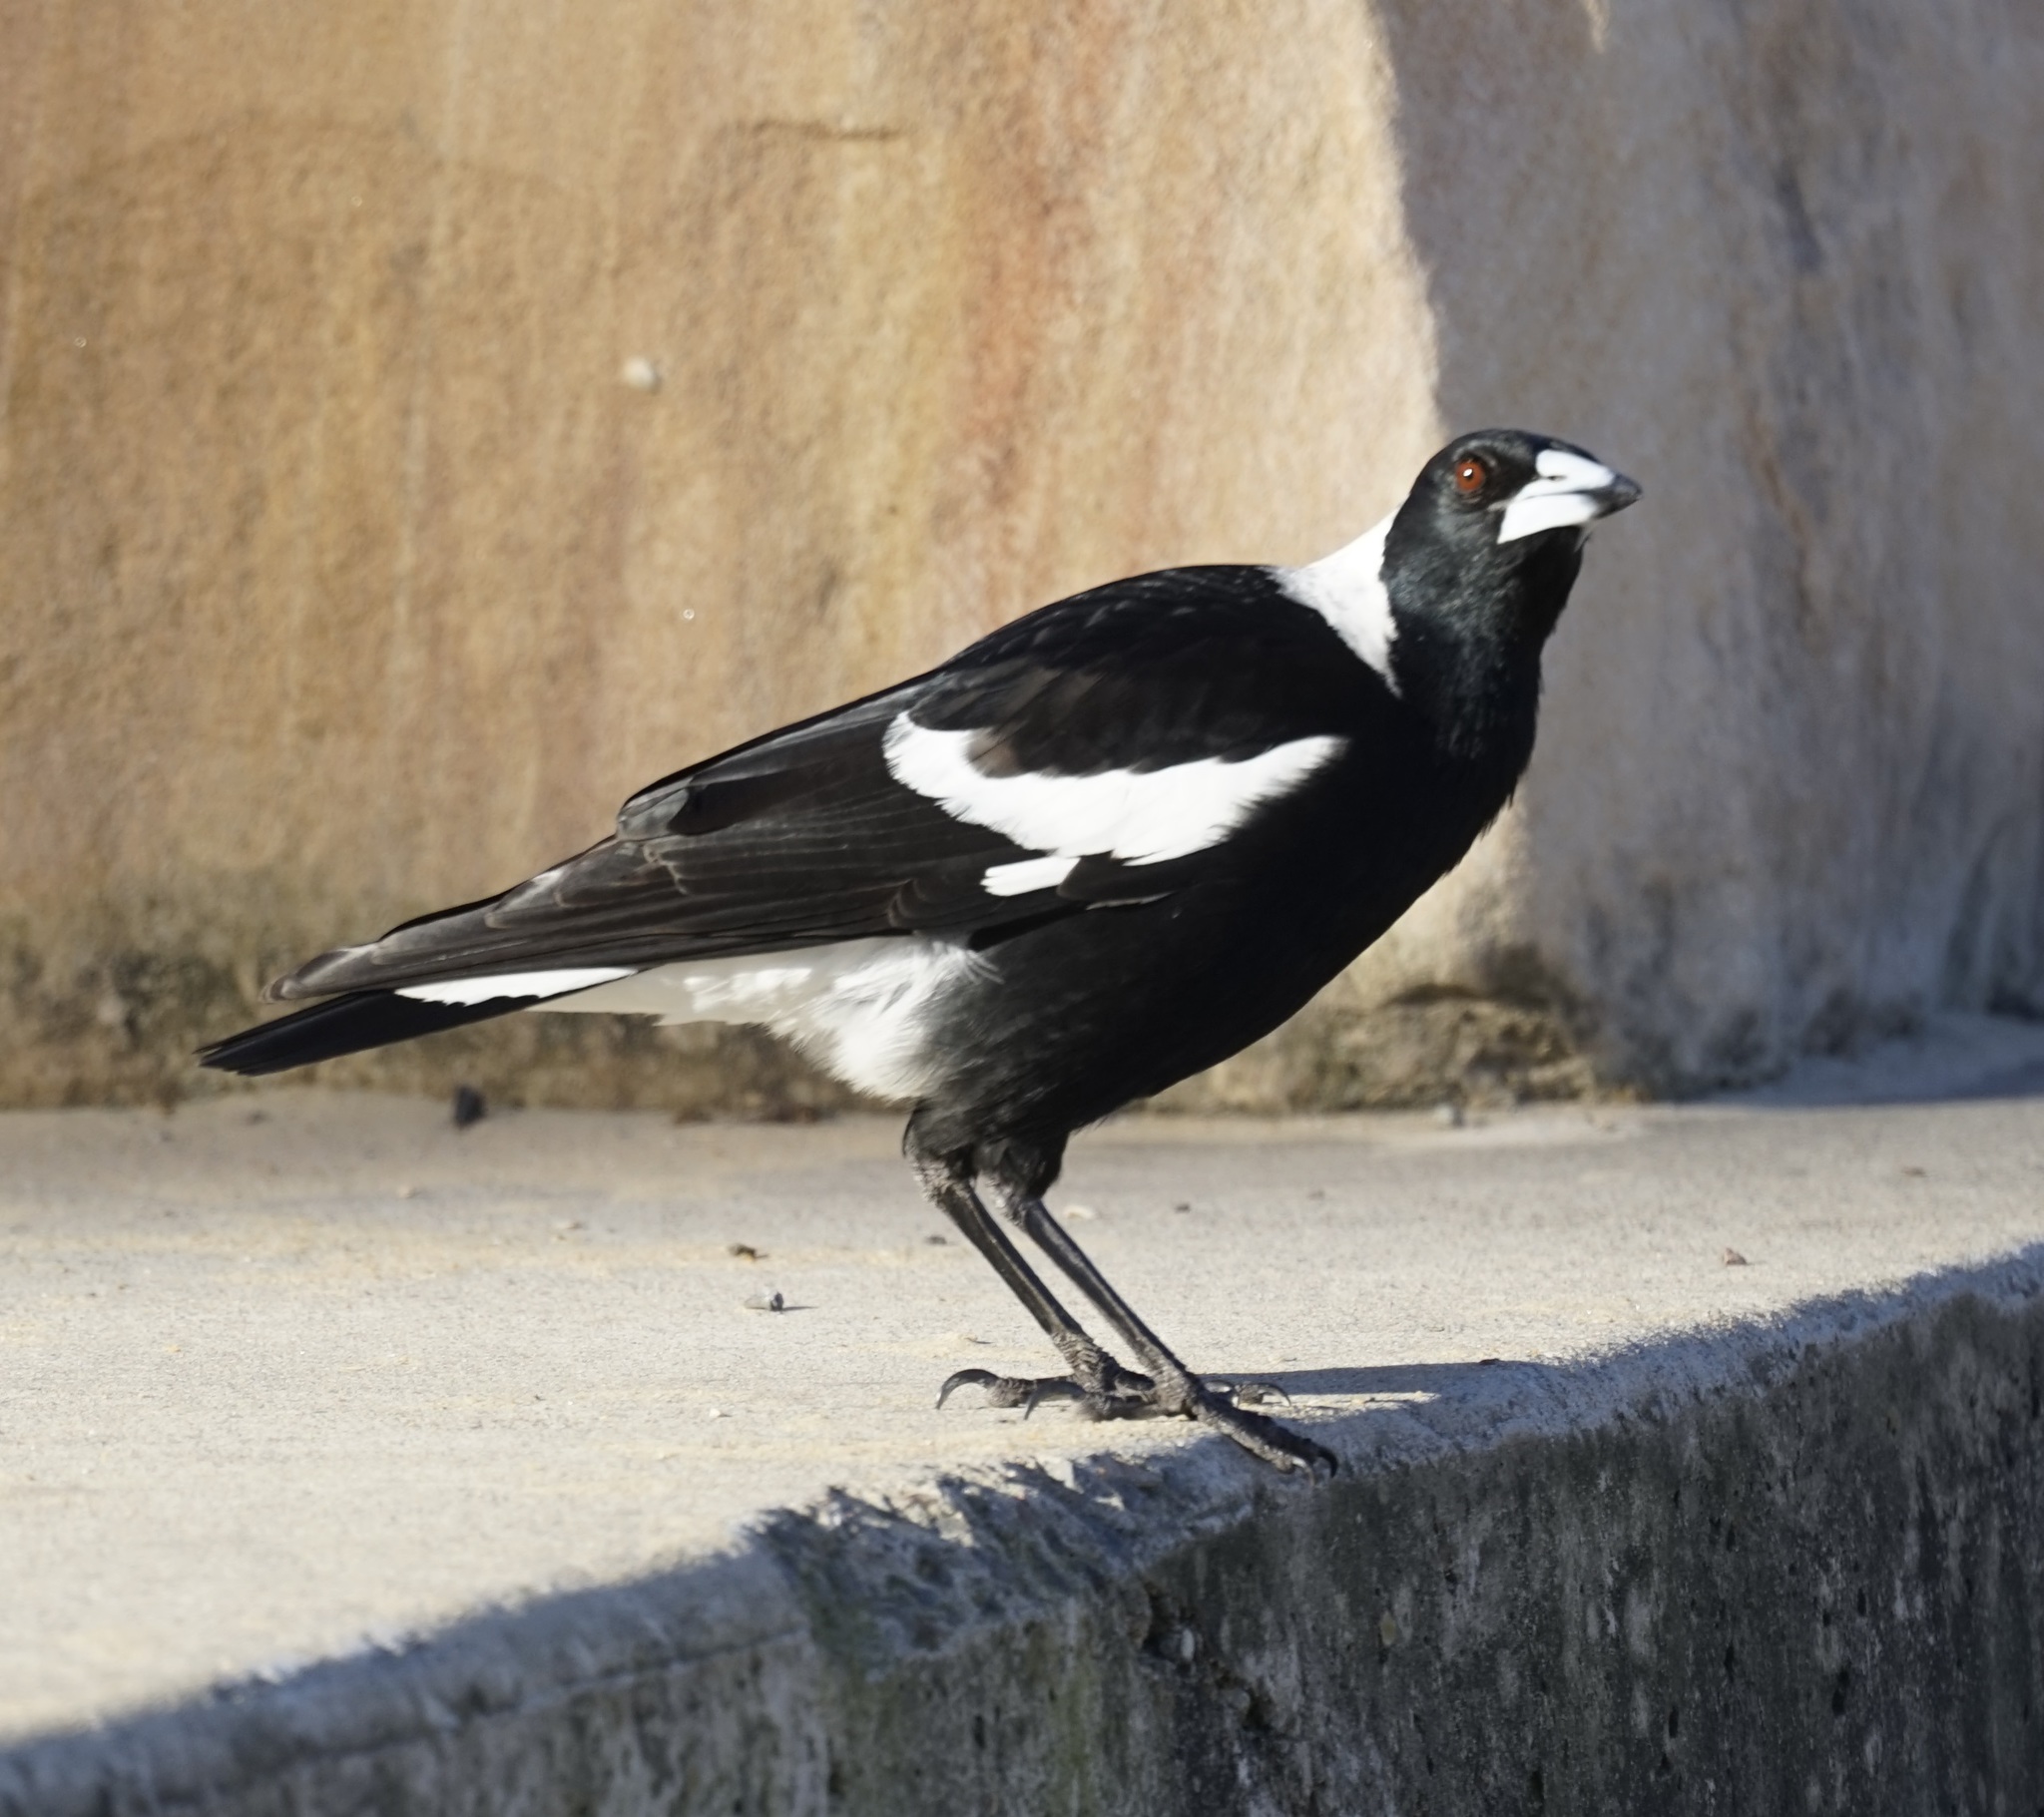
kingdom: Animalia
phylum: Chordata
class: Aves
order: Passeriformes
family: Cracticidae
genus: Gymnorhina
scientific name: Gymnorhina tibicen
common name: Australian magpie
